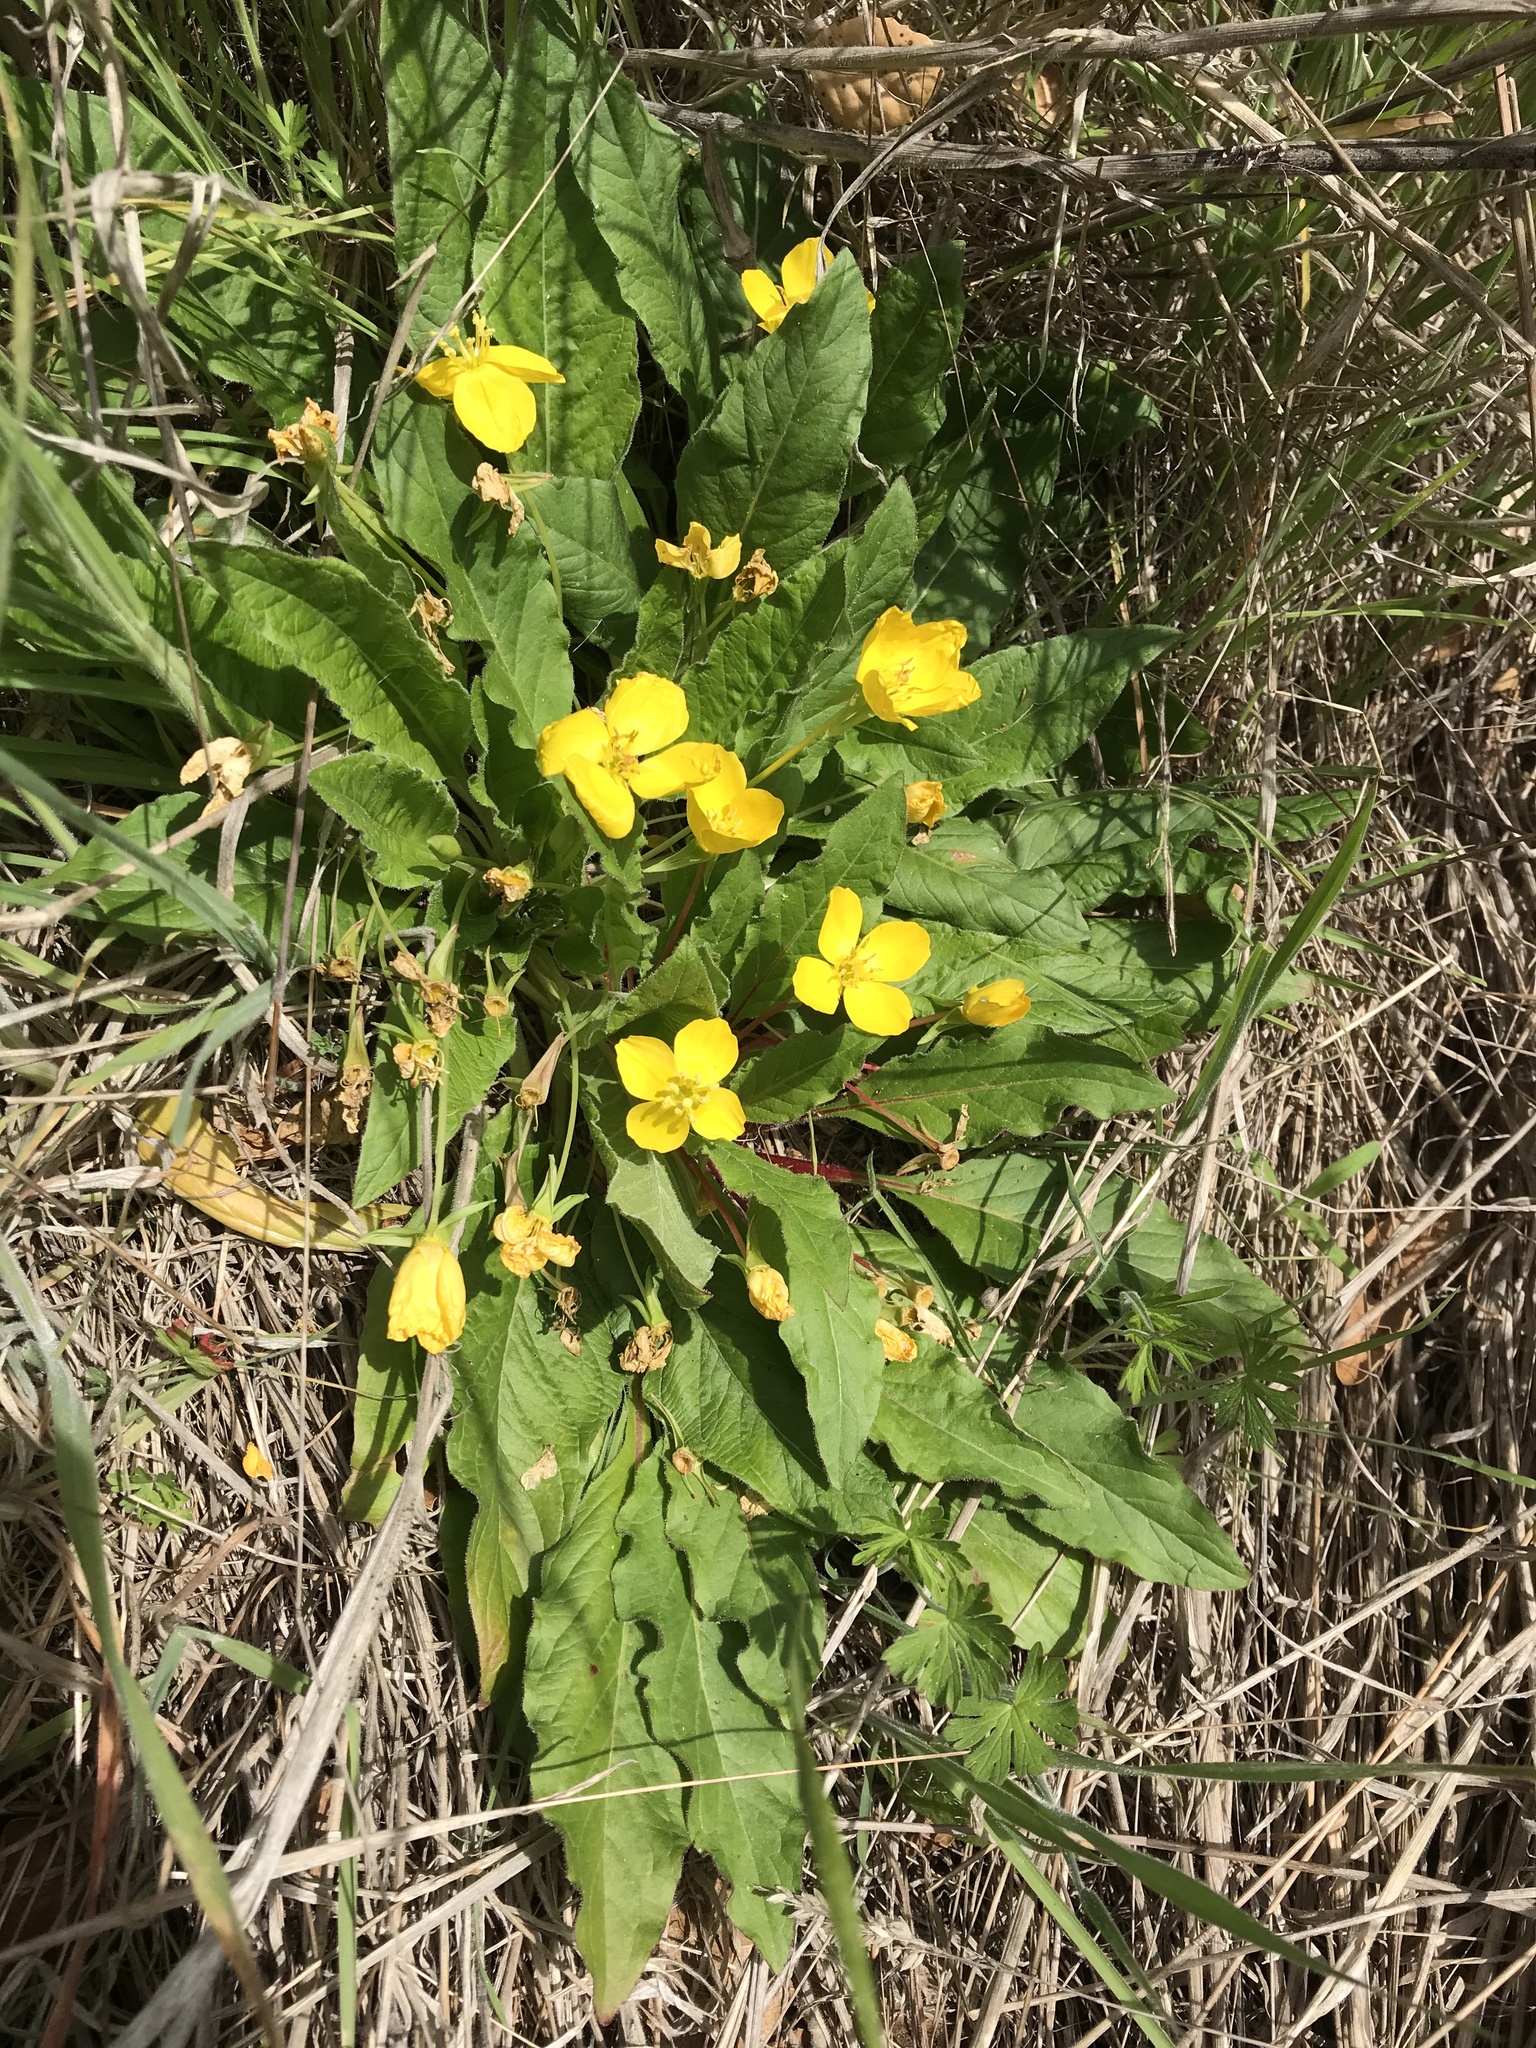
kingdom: Plantae
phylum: Tracheophyta
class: Magnoliopsida
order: Myrtales
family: Onagraceae
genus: Taraxia
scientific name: Taraxia ovata
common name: Goldeneggs
